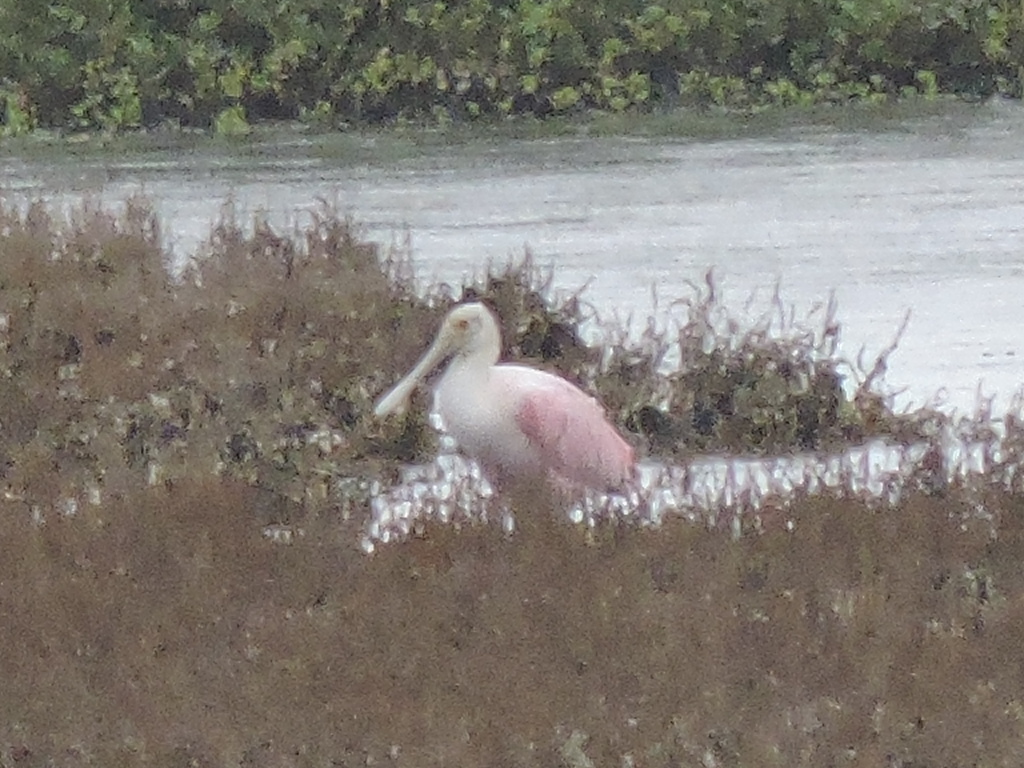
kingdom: Animalia
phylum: Chordata
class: Aves
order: Pelecaniformes
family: Threskiornithidae
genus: Platalea
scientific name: Platalea ajaja
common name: Roseate spoonbill
